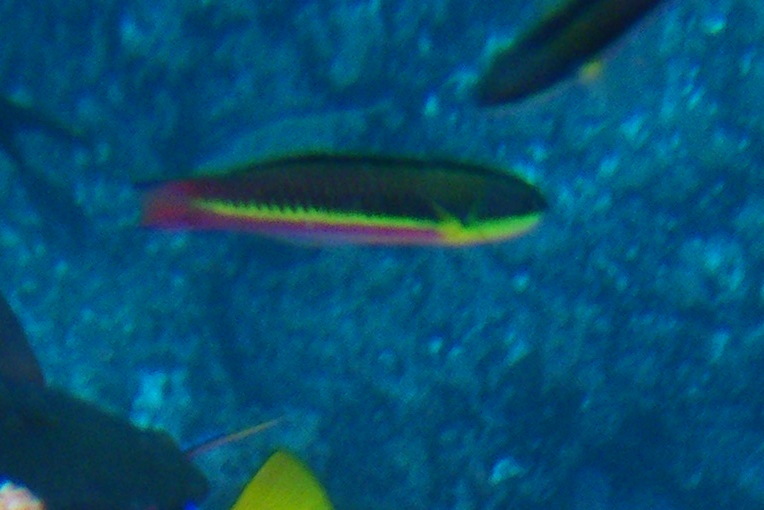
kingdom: Animalia
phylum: Chordata
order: Perciformes
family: Labridae
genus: Thalassoma
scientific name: Thalassoma lucasanum
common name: Cortez rainbow wrasse
